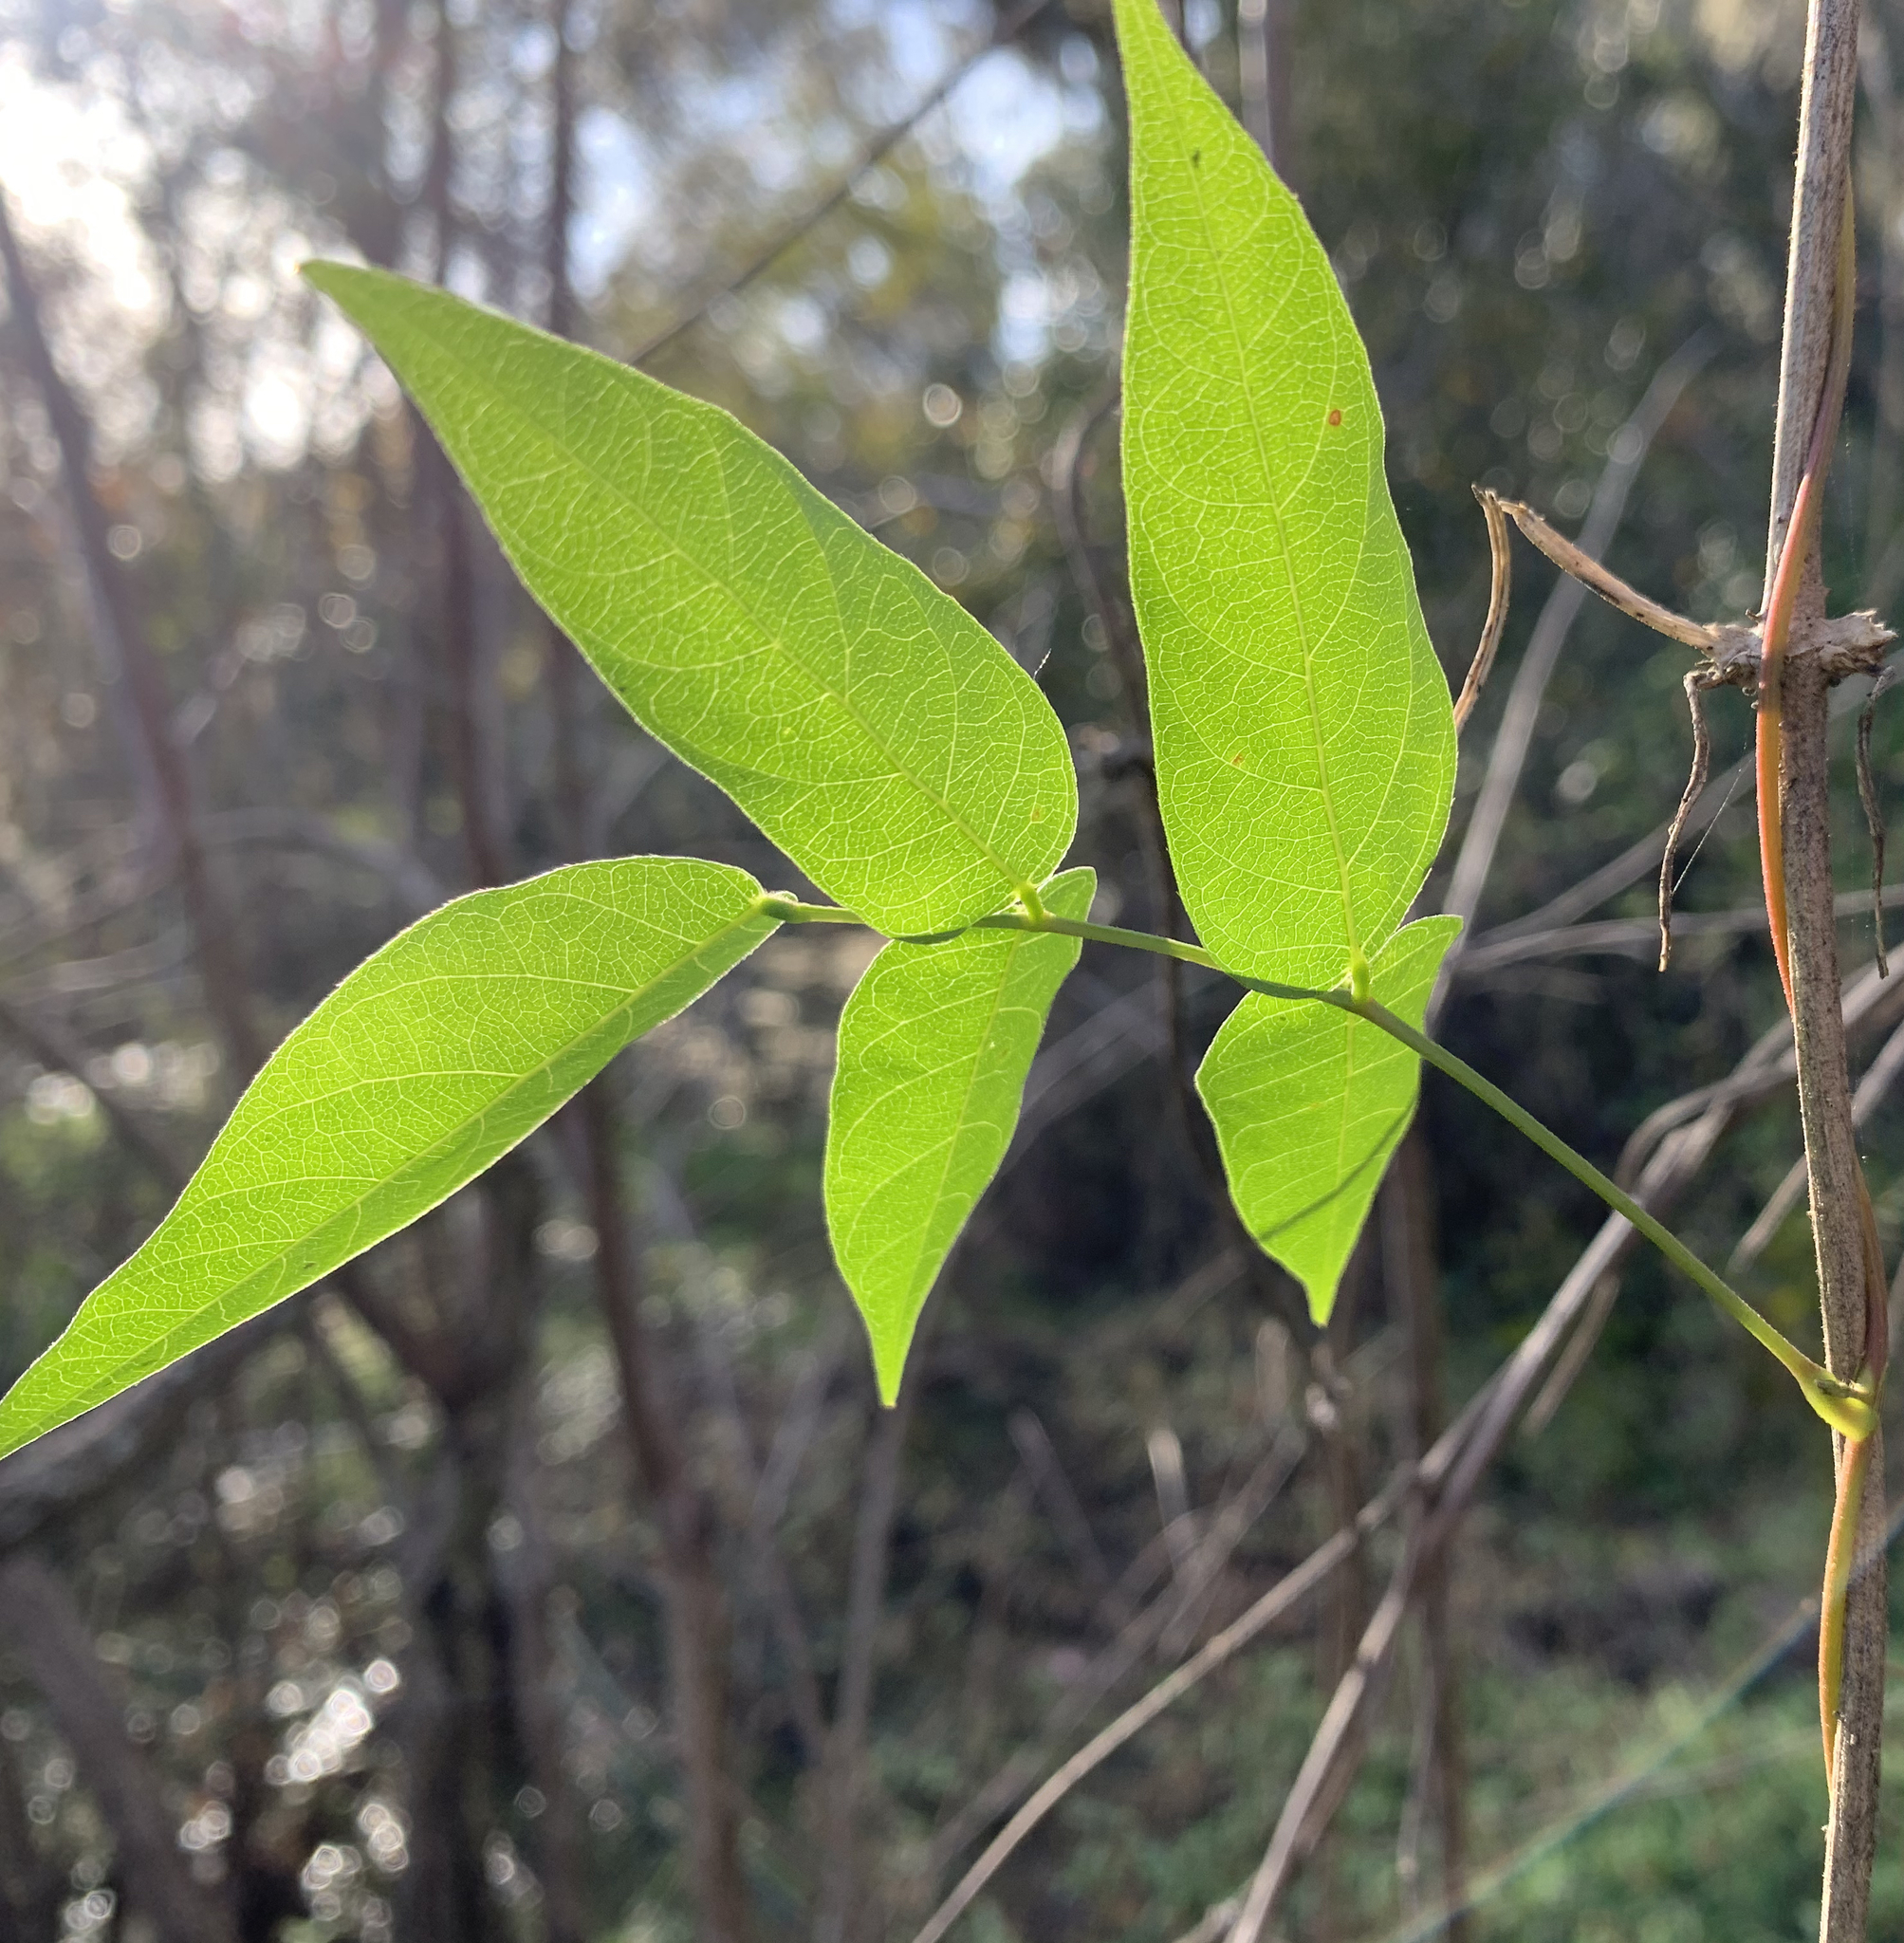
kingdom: Plantae
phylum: Tracheophyta
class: Magnoliopsida
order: Fabales
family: Fabaceae
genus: Apios
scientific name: Apios americana
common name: American potato-bean
